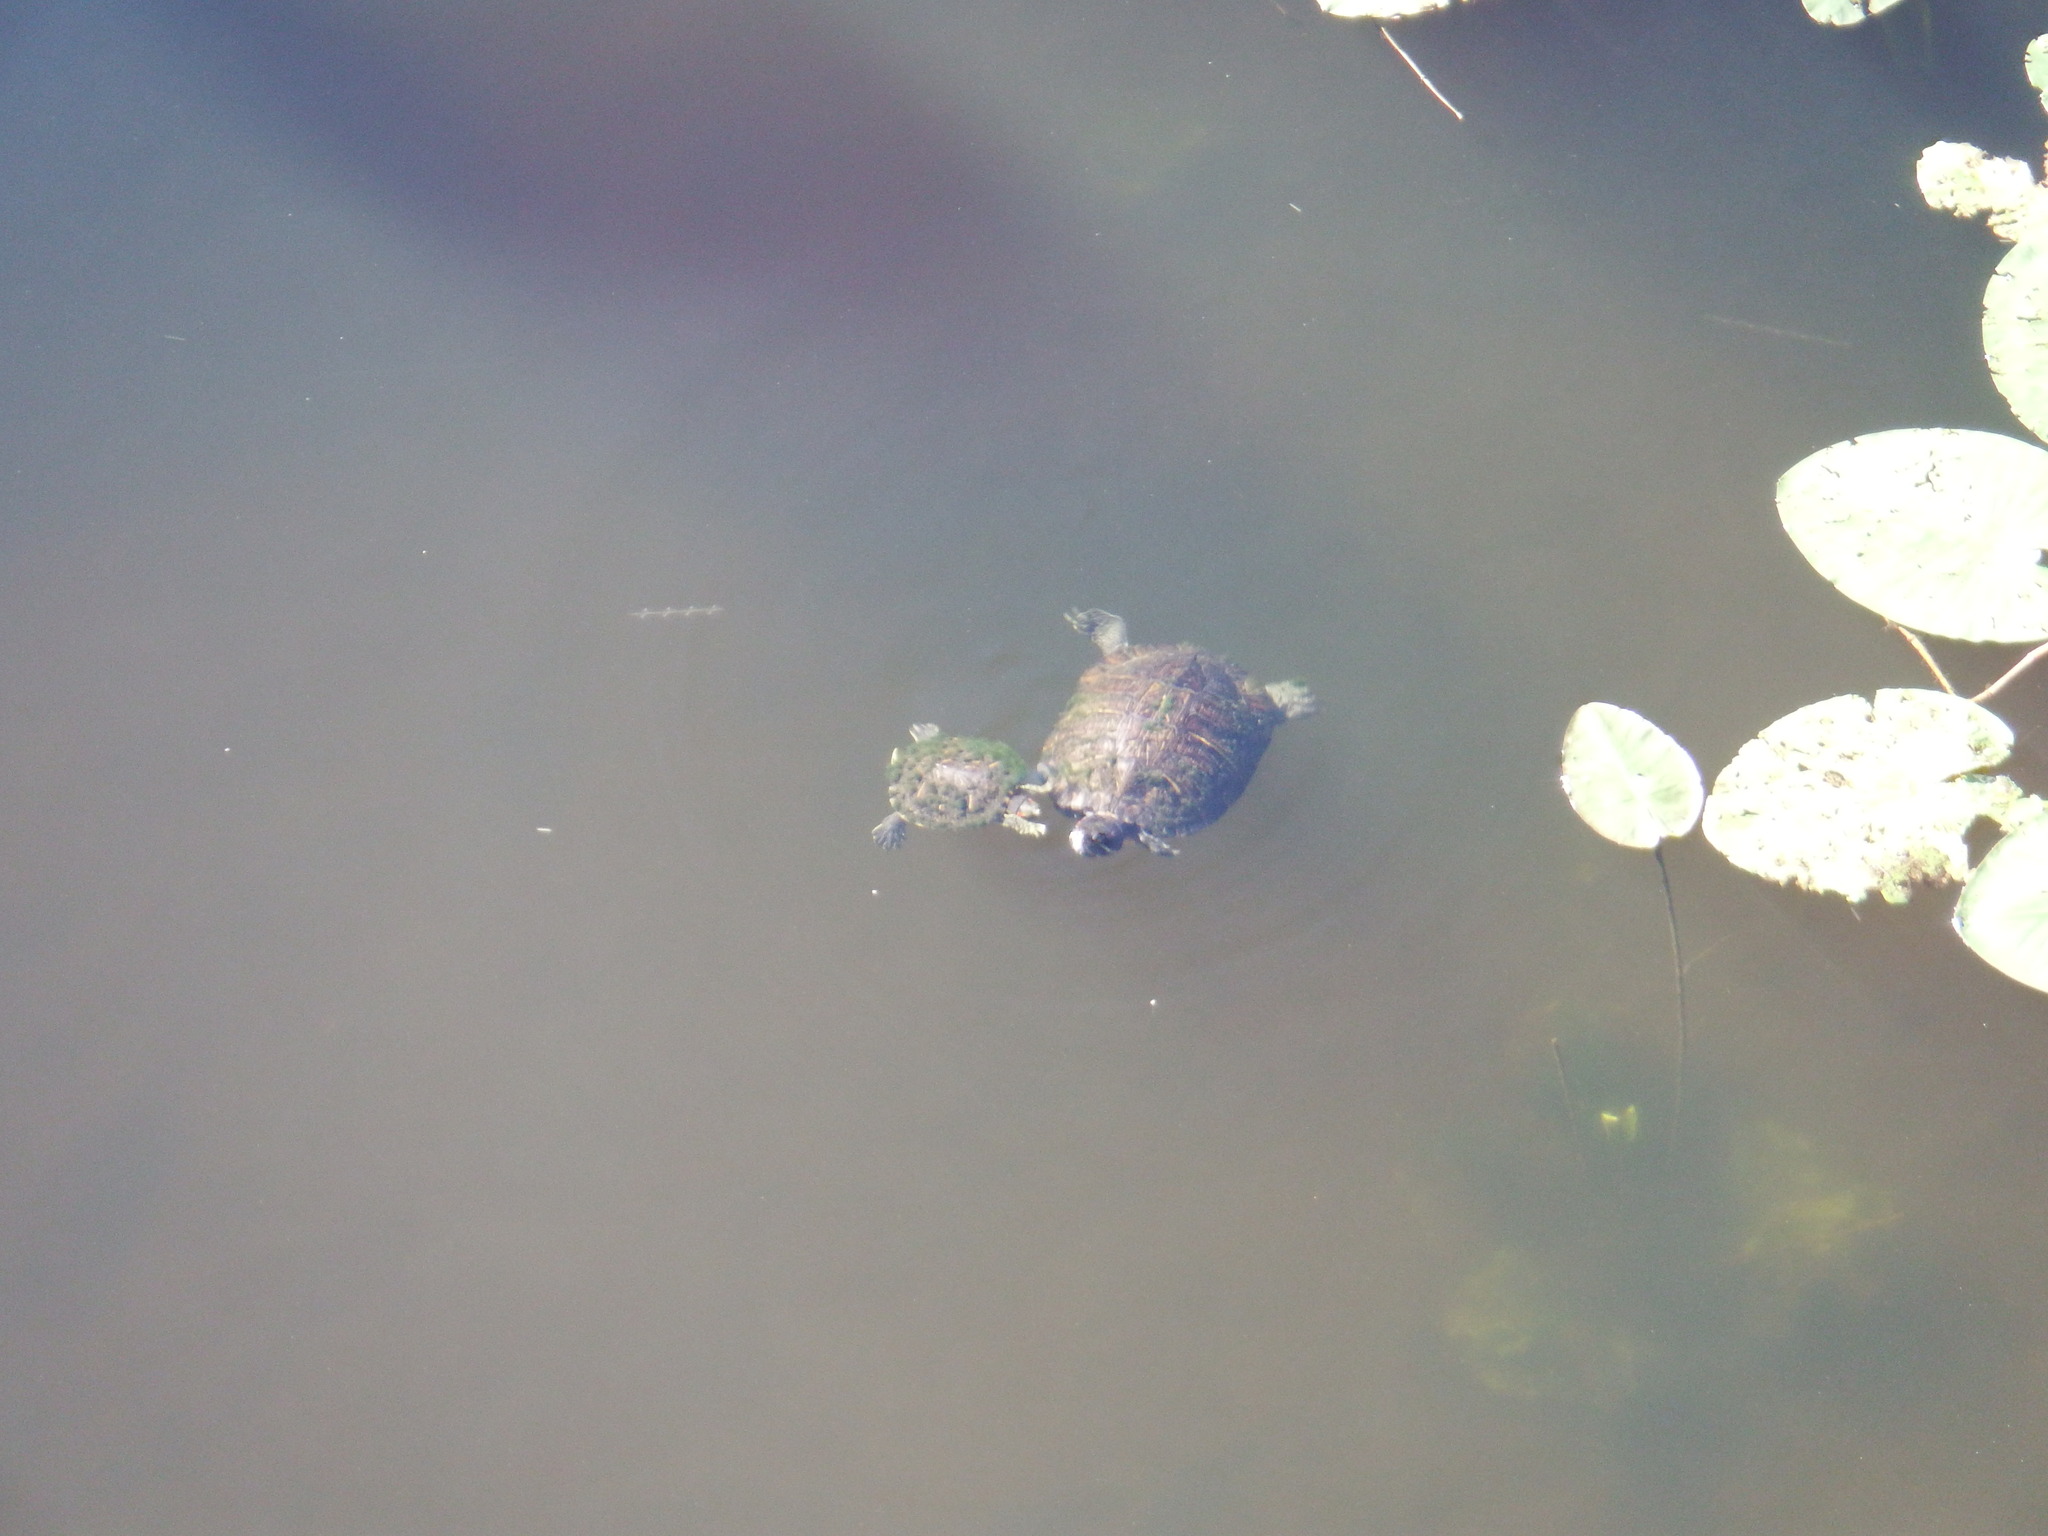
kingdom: Animalia
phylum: Chordata
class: Testudines
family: Emydidae
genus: Trachemys
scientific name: Trachemys scripta
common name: Slider
